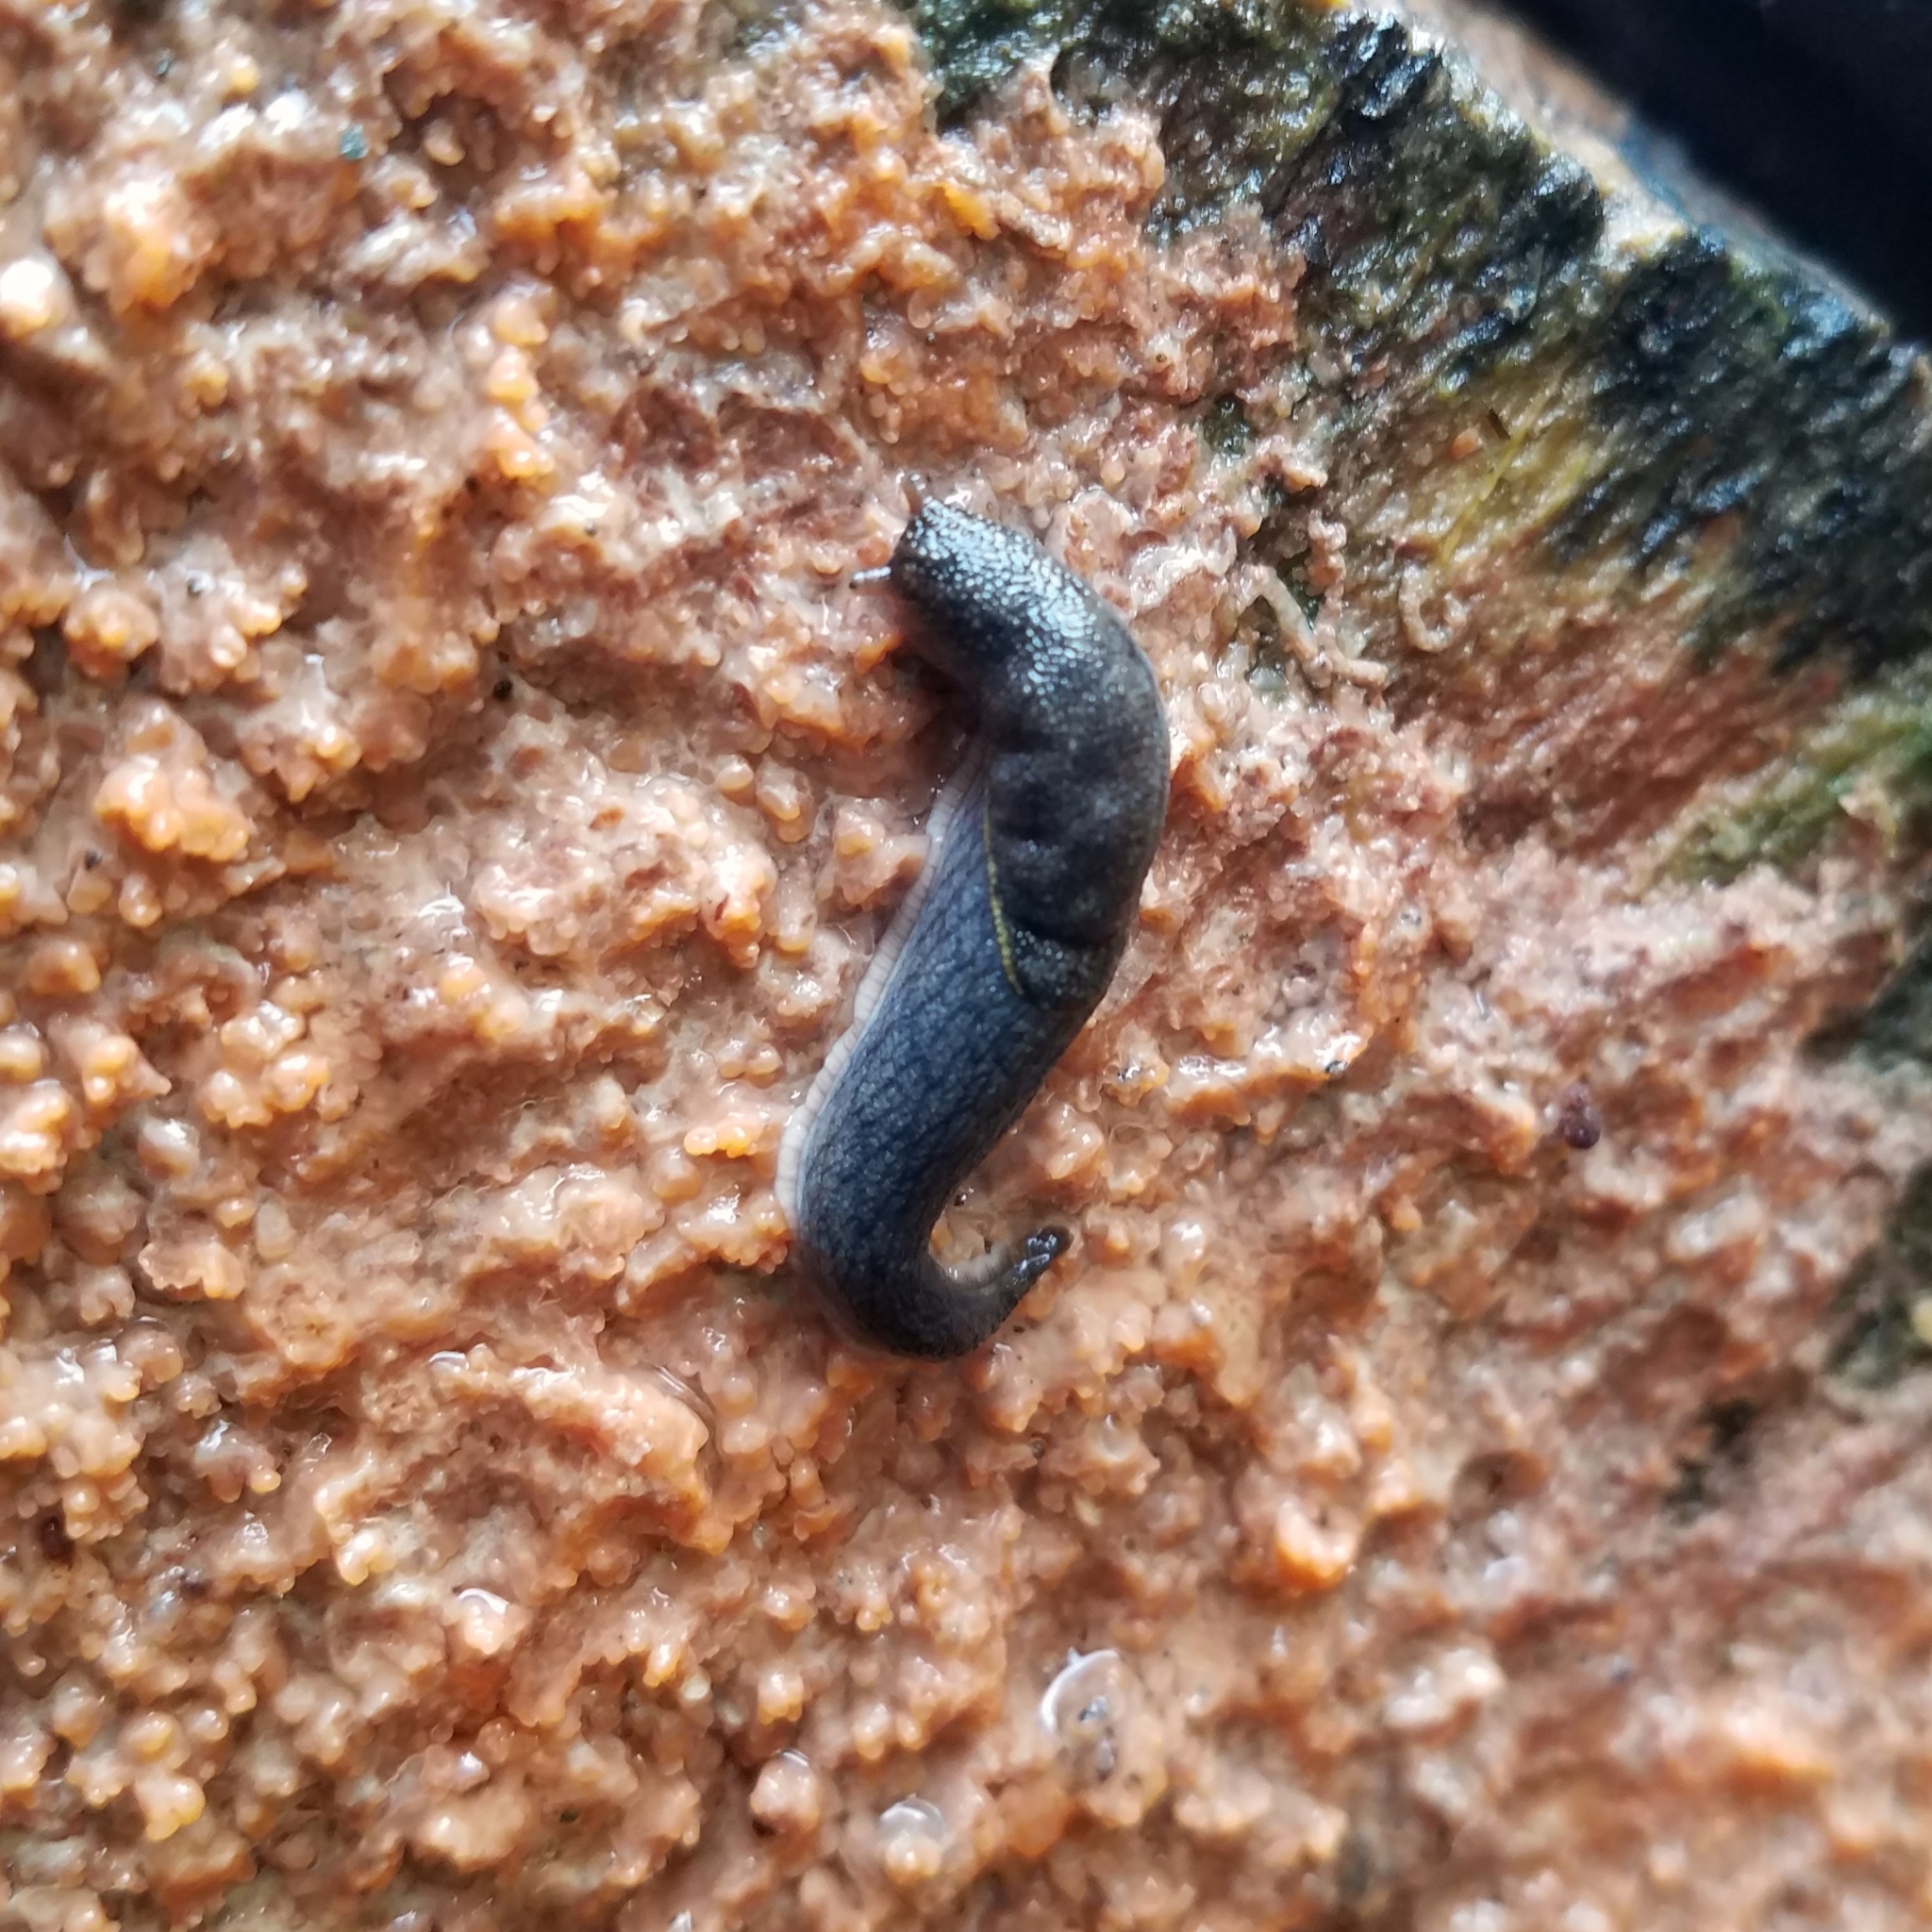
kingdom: Animalia
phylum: Mollusca
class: Gastropoda
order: Stylommatophora
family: Ariolimacidae
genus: Prophysaon
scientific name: Prophysaon foliolatum
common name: Yellow-bordered taildropper
